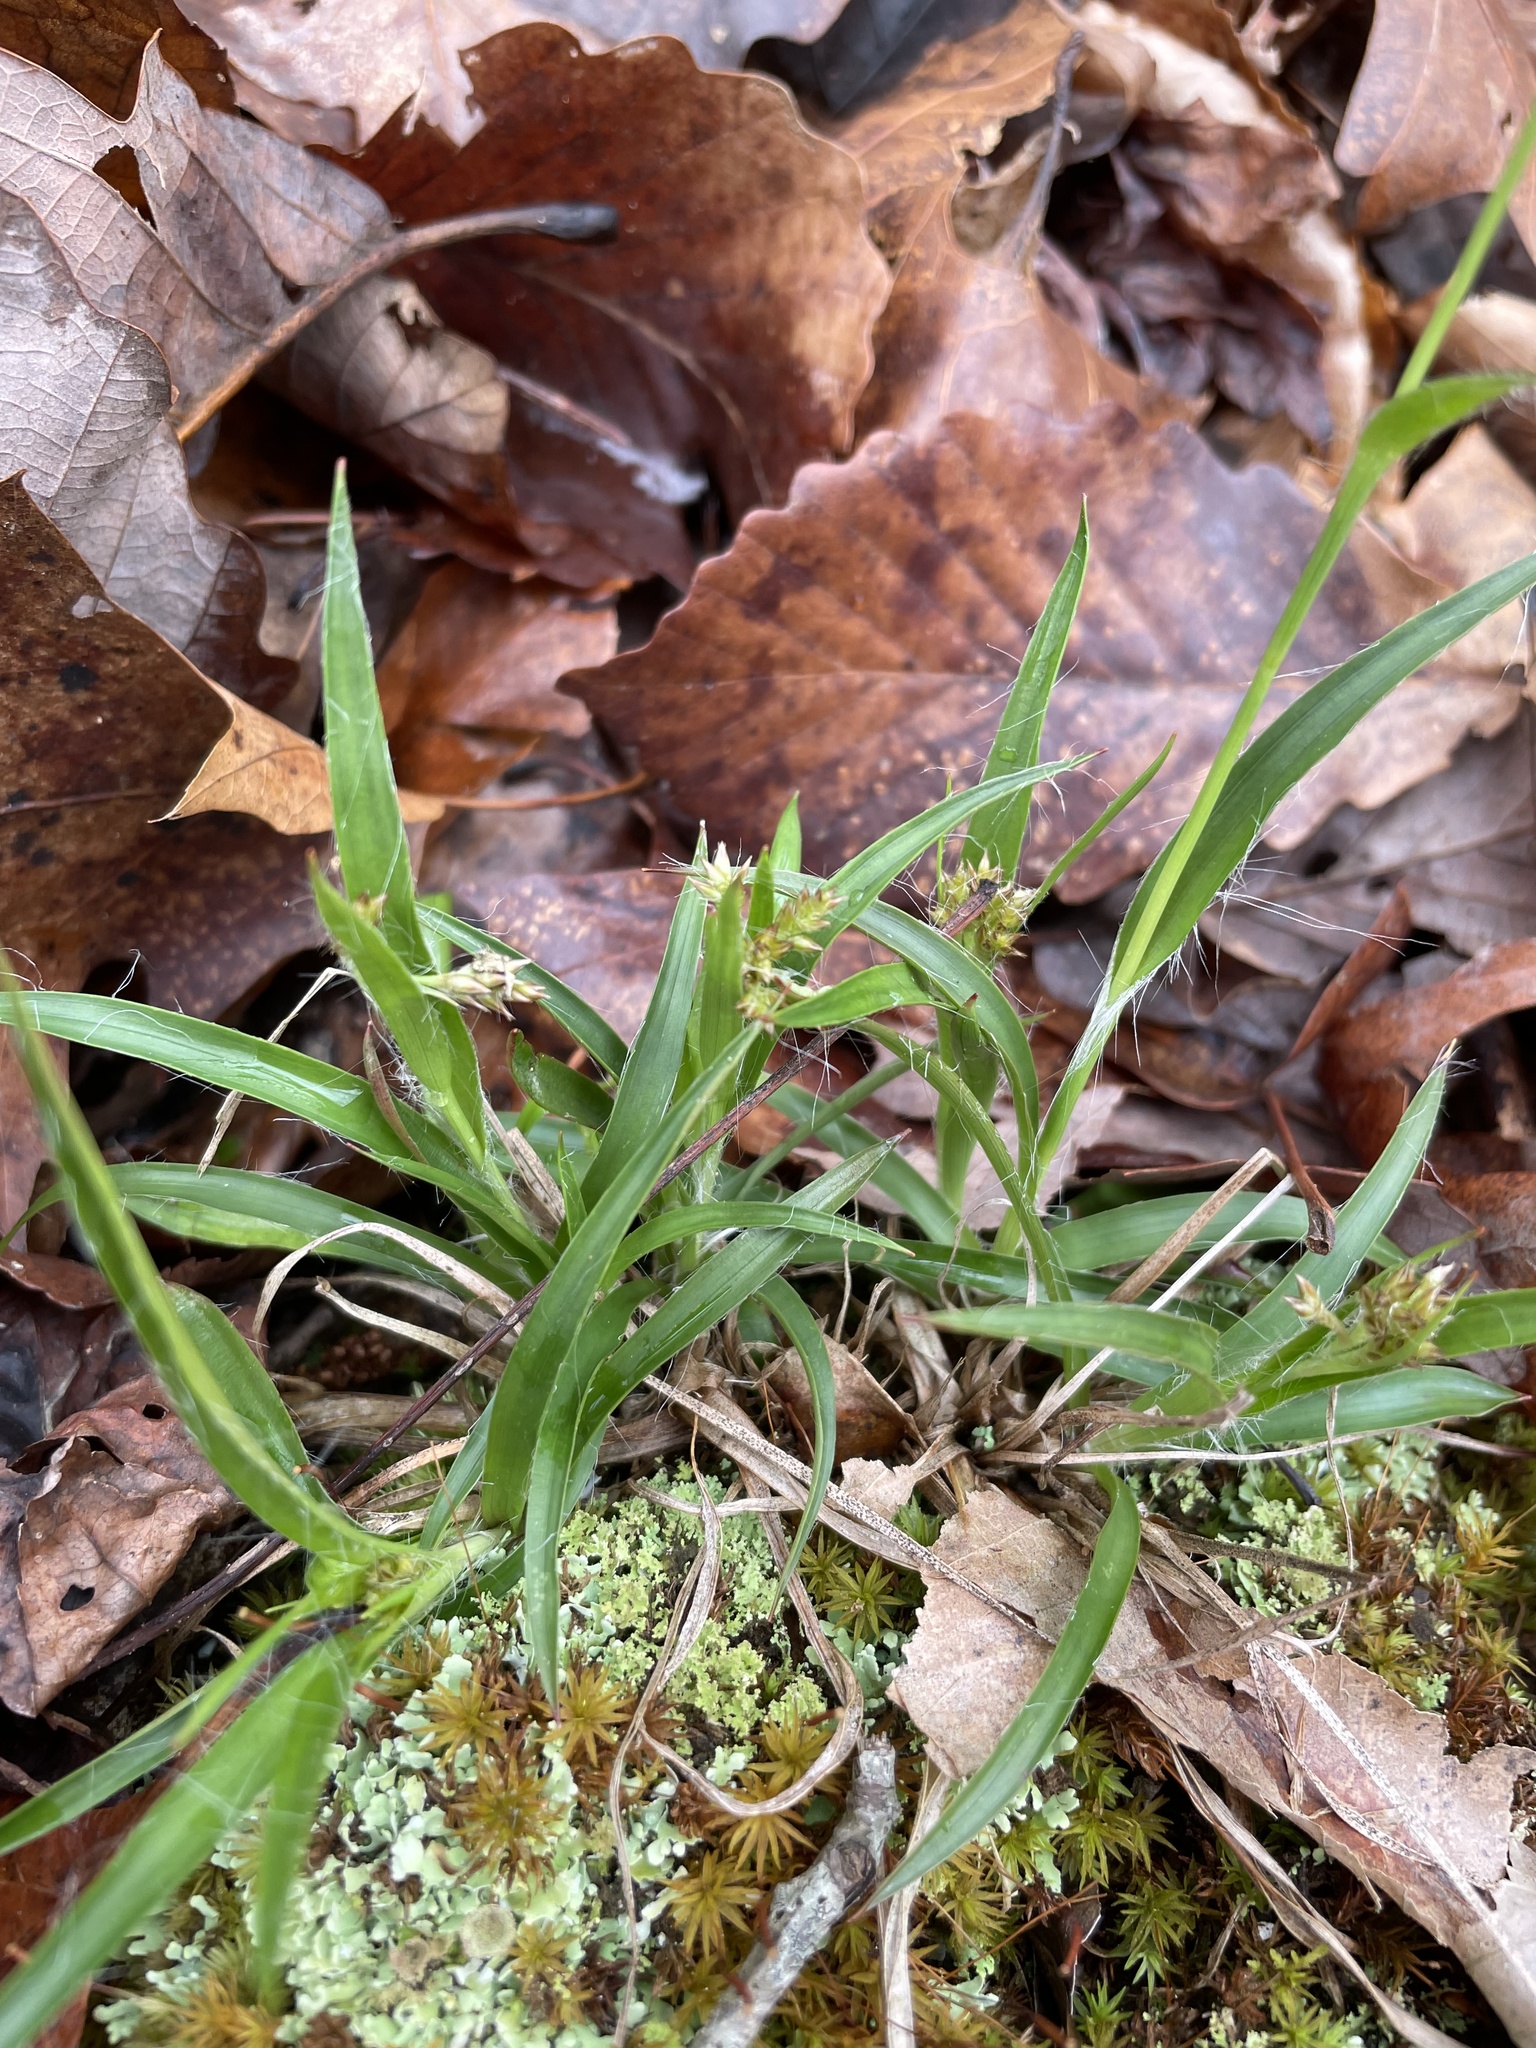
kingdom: Plantae
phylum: Tracheophyta
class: Liliopsida
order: Poales
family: Juncaceae
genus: Luzula
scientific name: Luzula echinata
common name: Hedgehog woodrush
